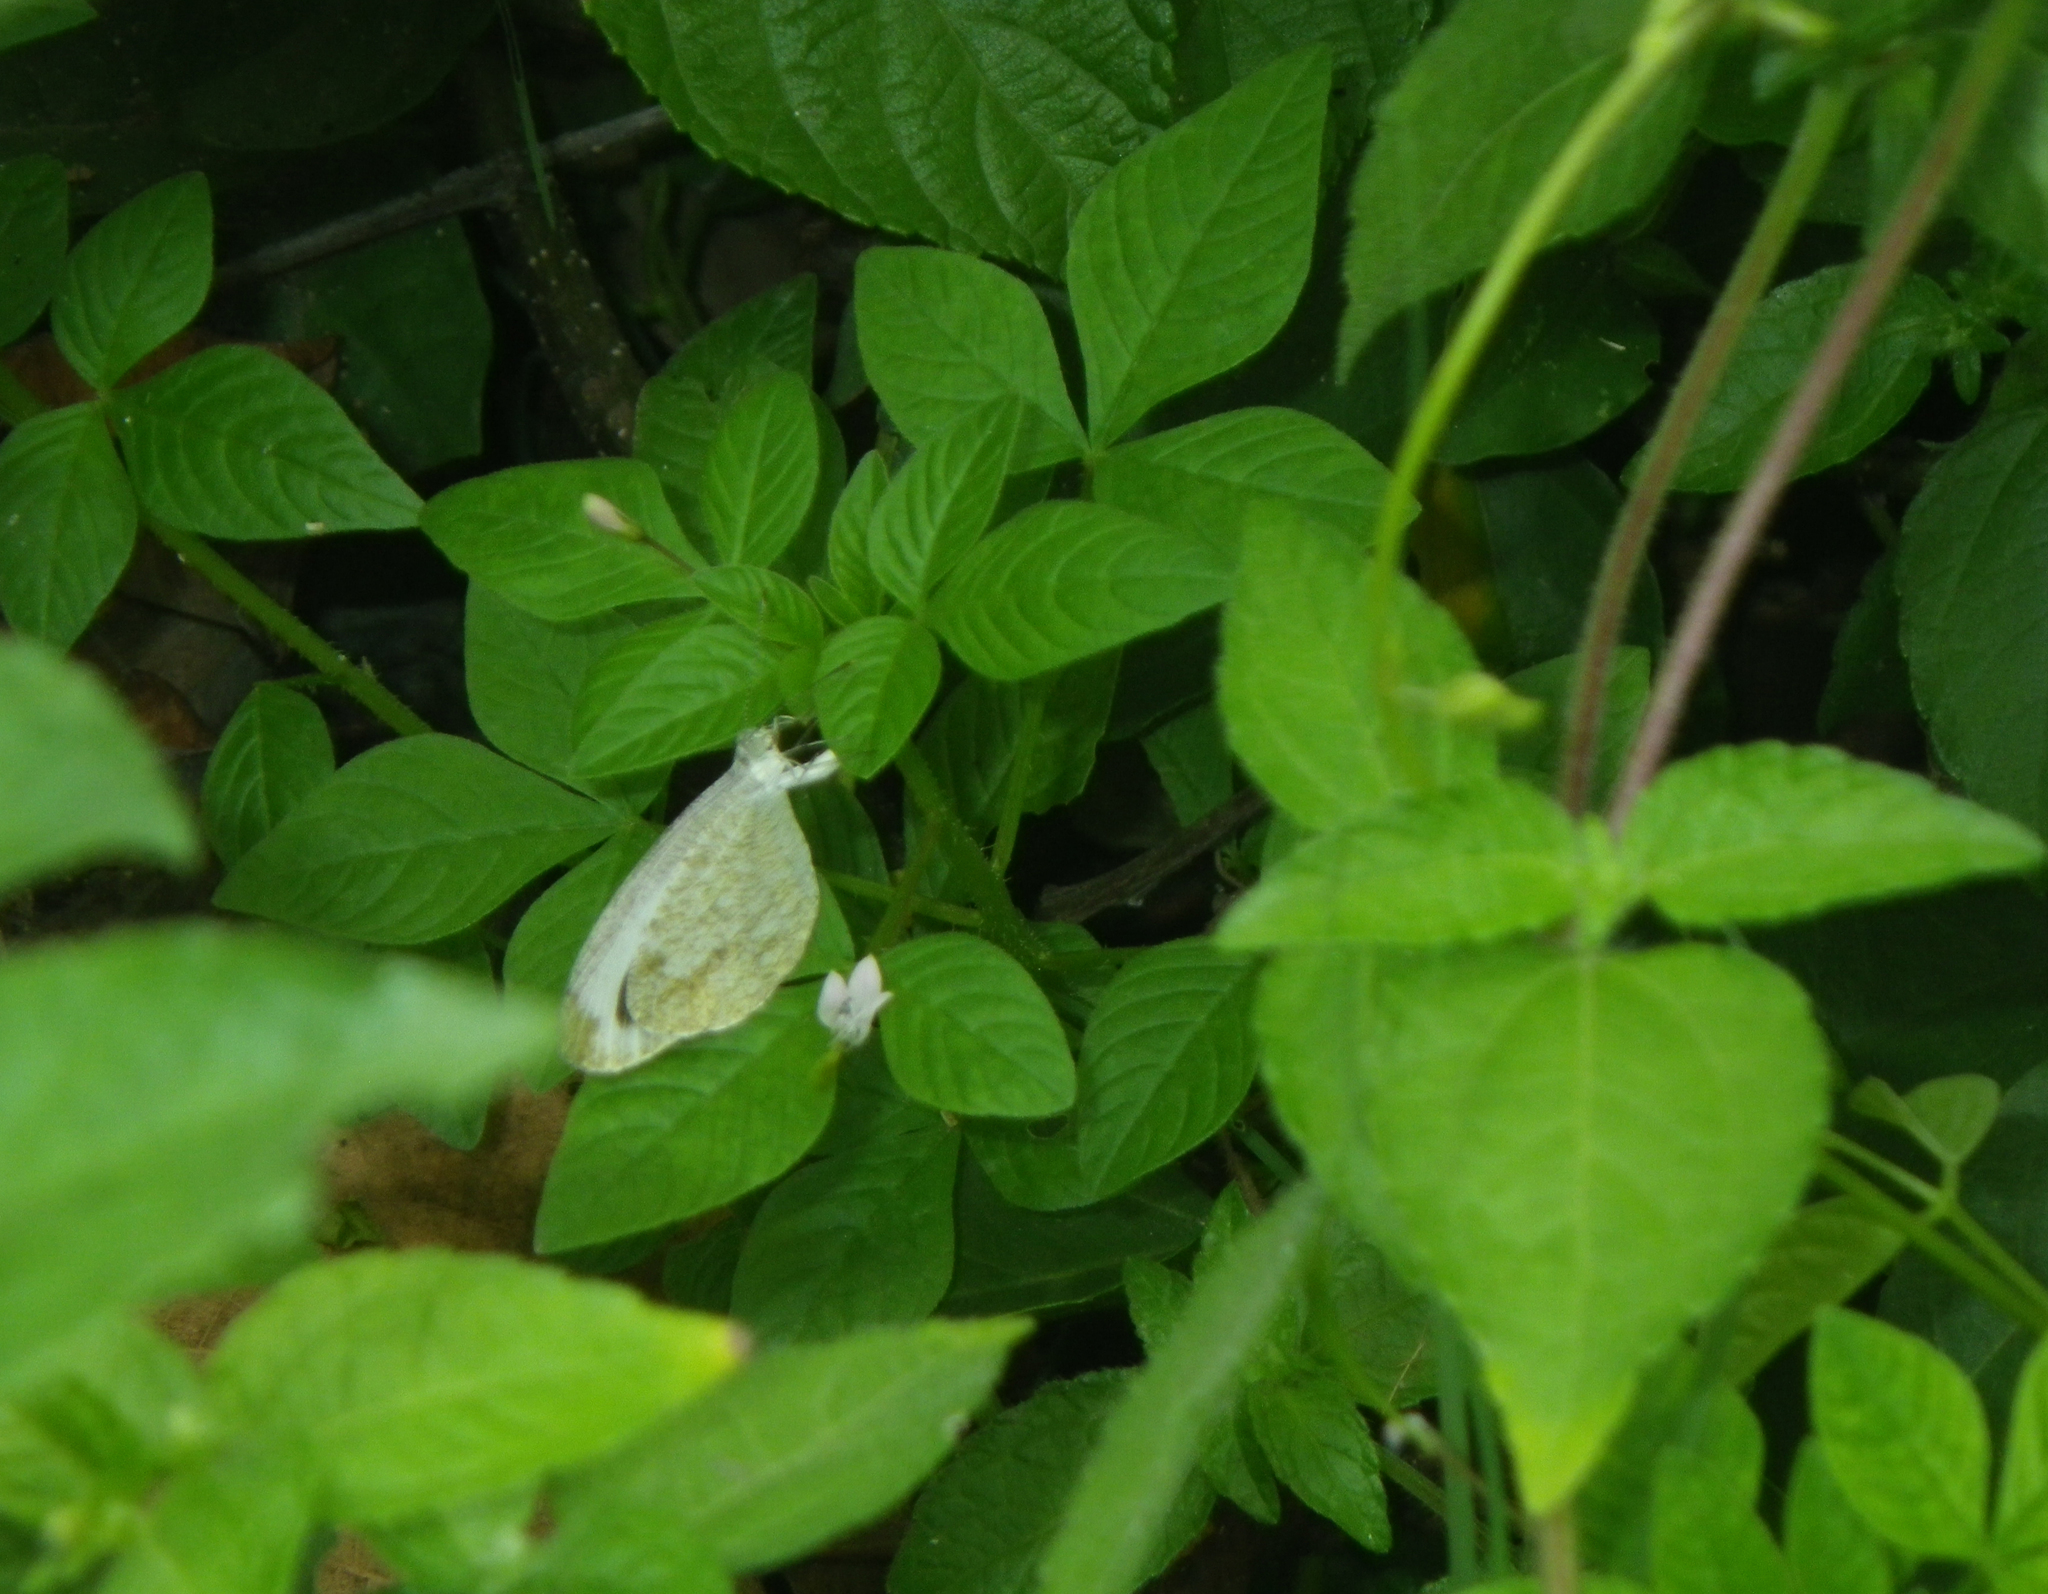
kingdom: Plantae
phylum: Tracheophyta
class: Magnoliopsida
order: Brassicales
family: Cleomaceae
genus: Sieruela
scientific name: Sieruela rutidosperma
